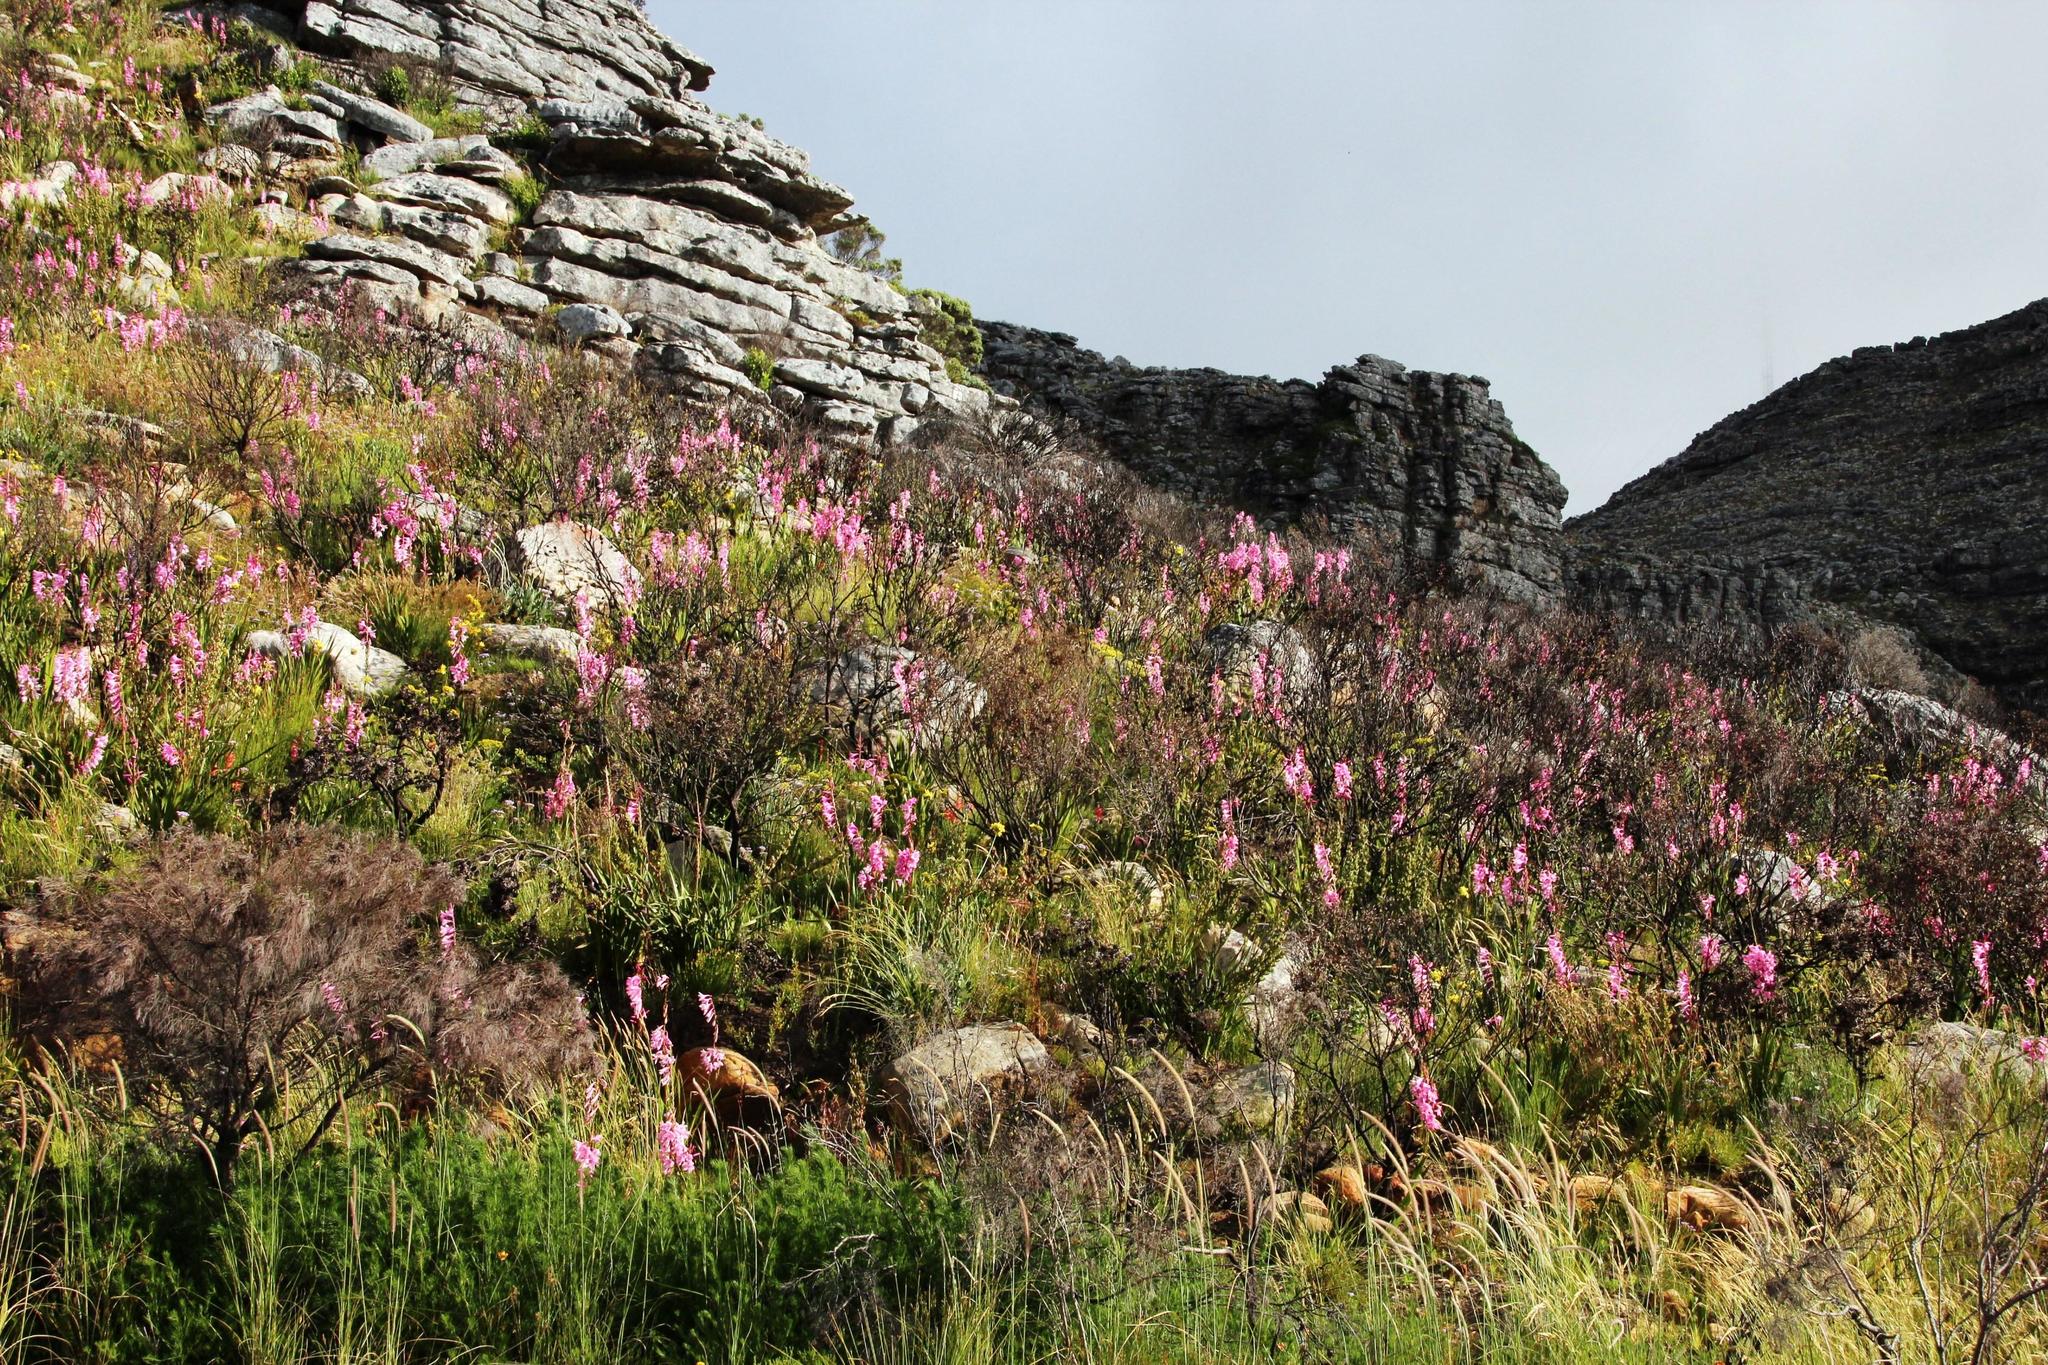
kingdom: Plantae
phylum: Tracheophyta
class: Liliopsida
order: Asparagales
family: Iridaceae
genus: Watsonia
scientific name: Watsonia borbonica
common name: Bugle-lily
